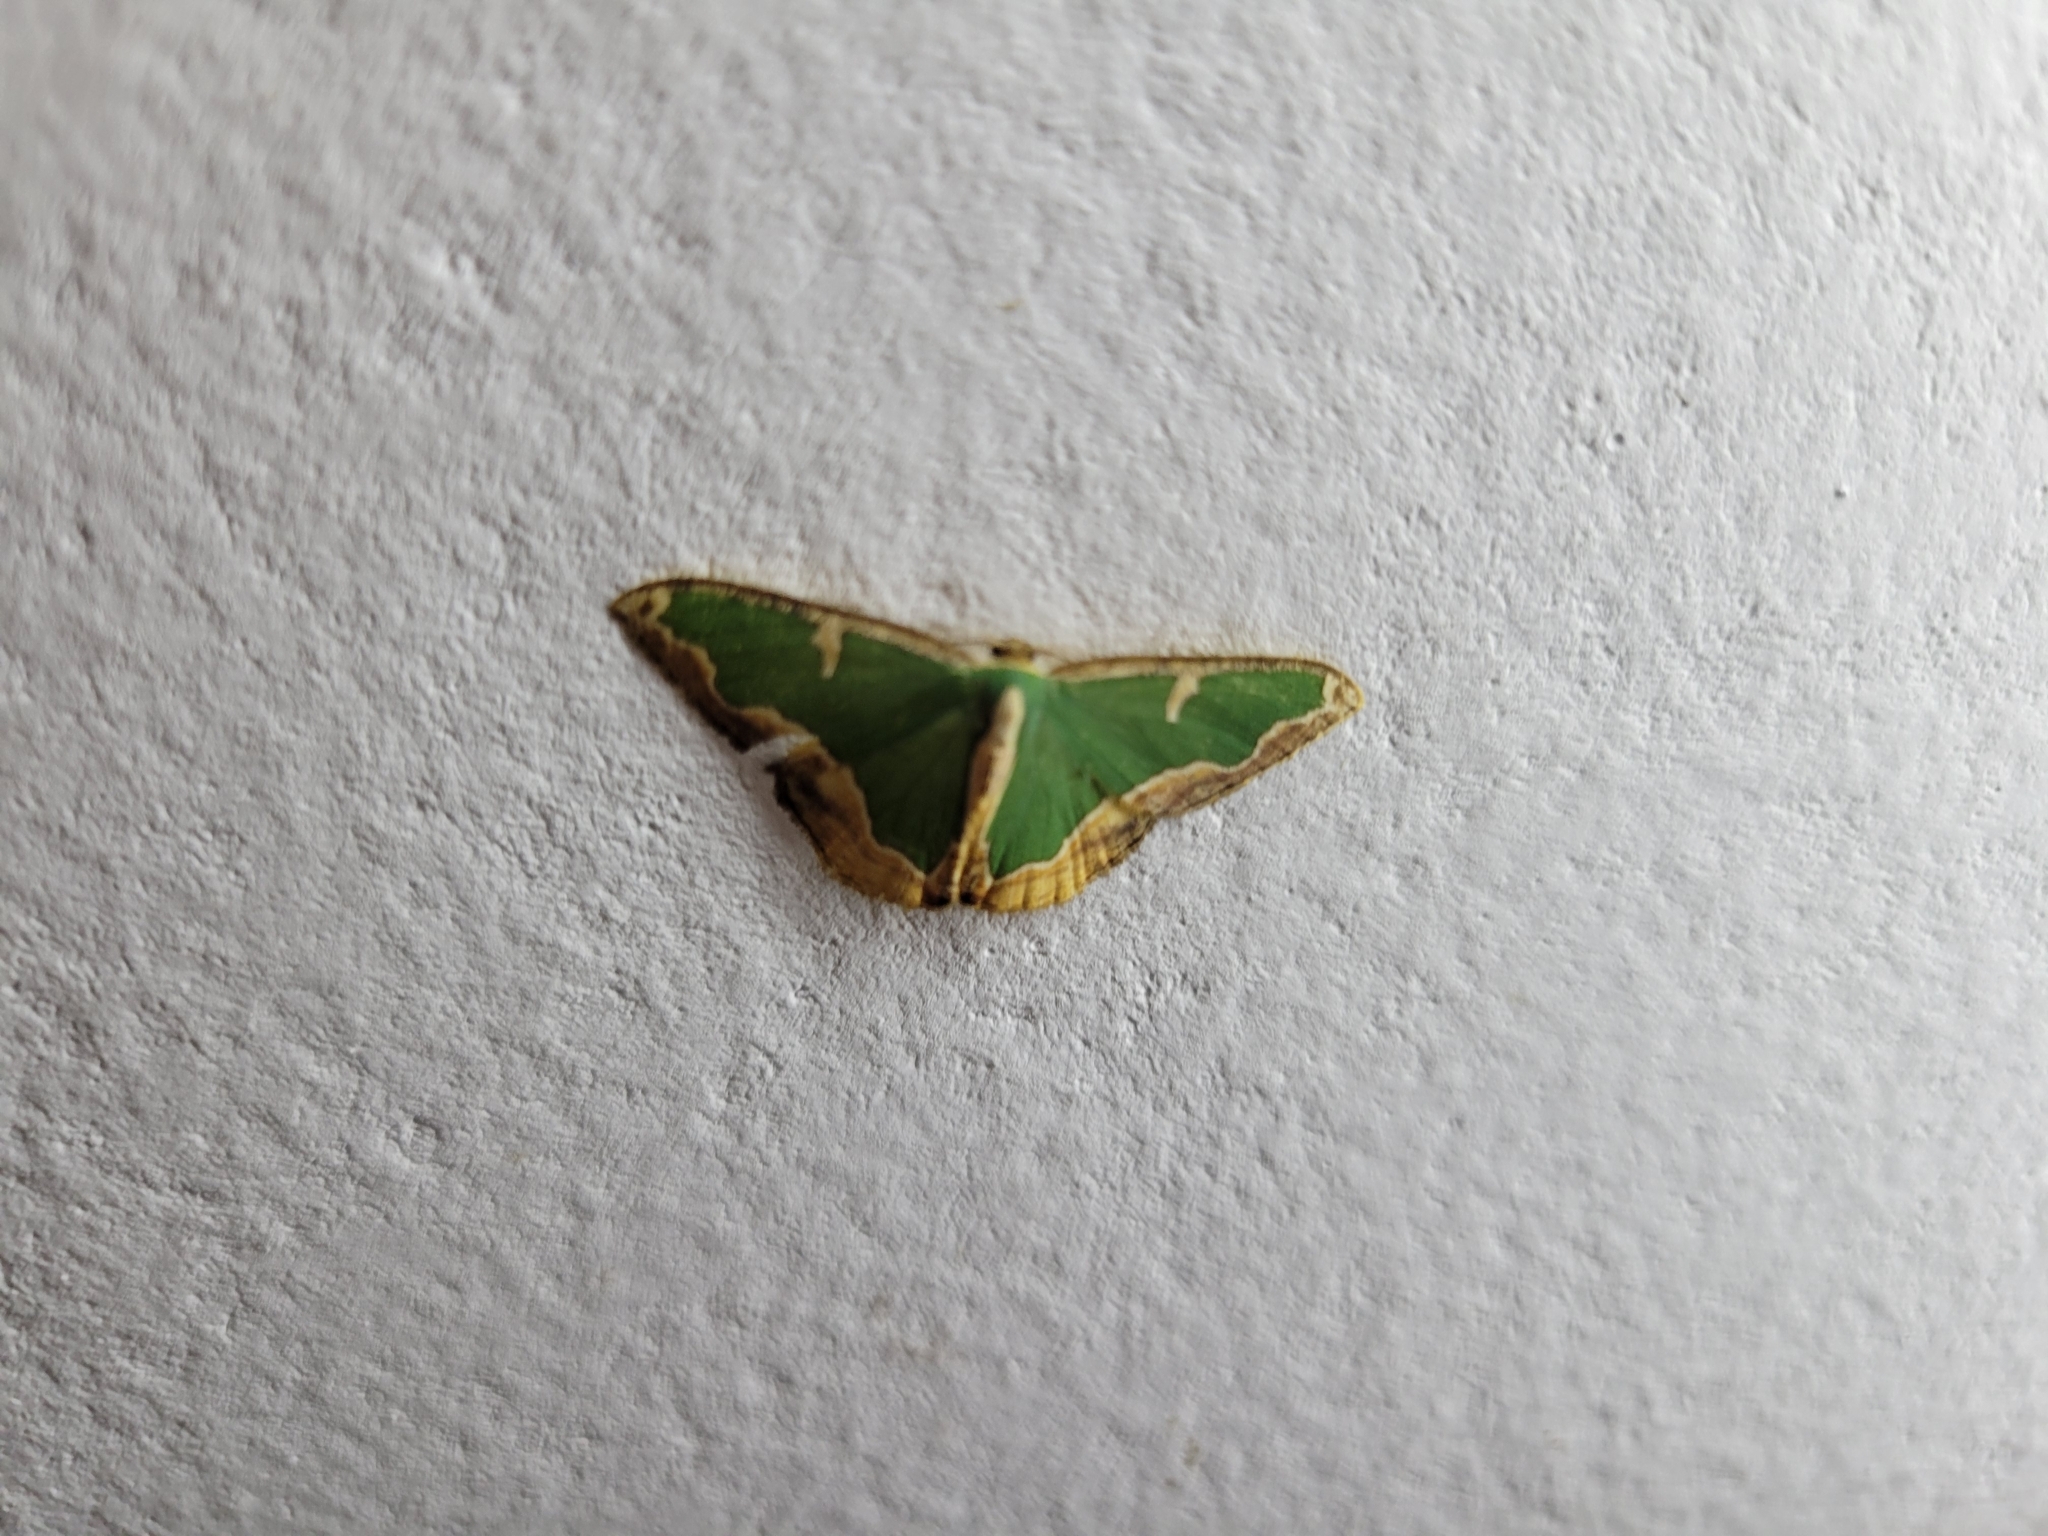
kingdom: Animalia
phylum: Arthropoda
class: Insecta
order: Lepidoptera
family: Geometridae
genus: Oospila
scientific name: Oospila venezuelata
